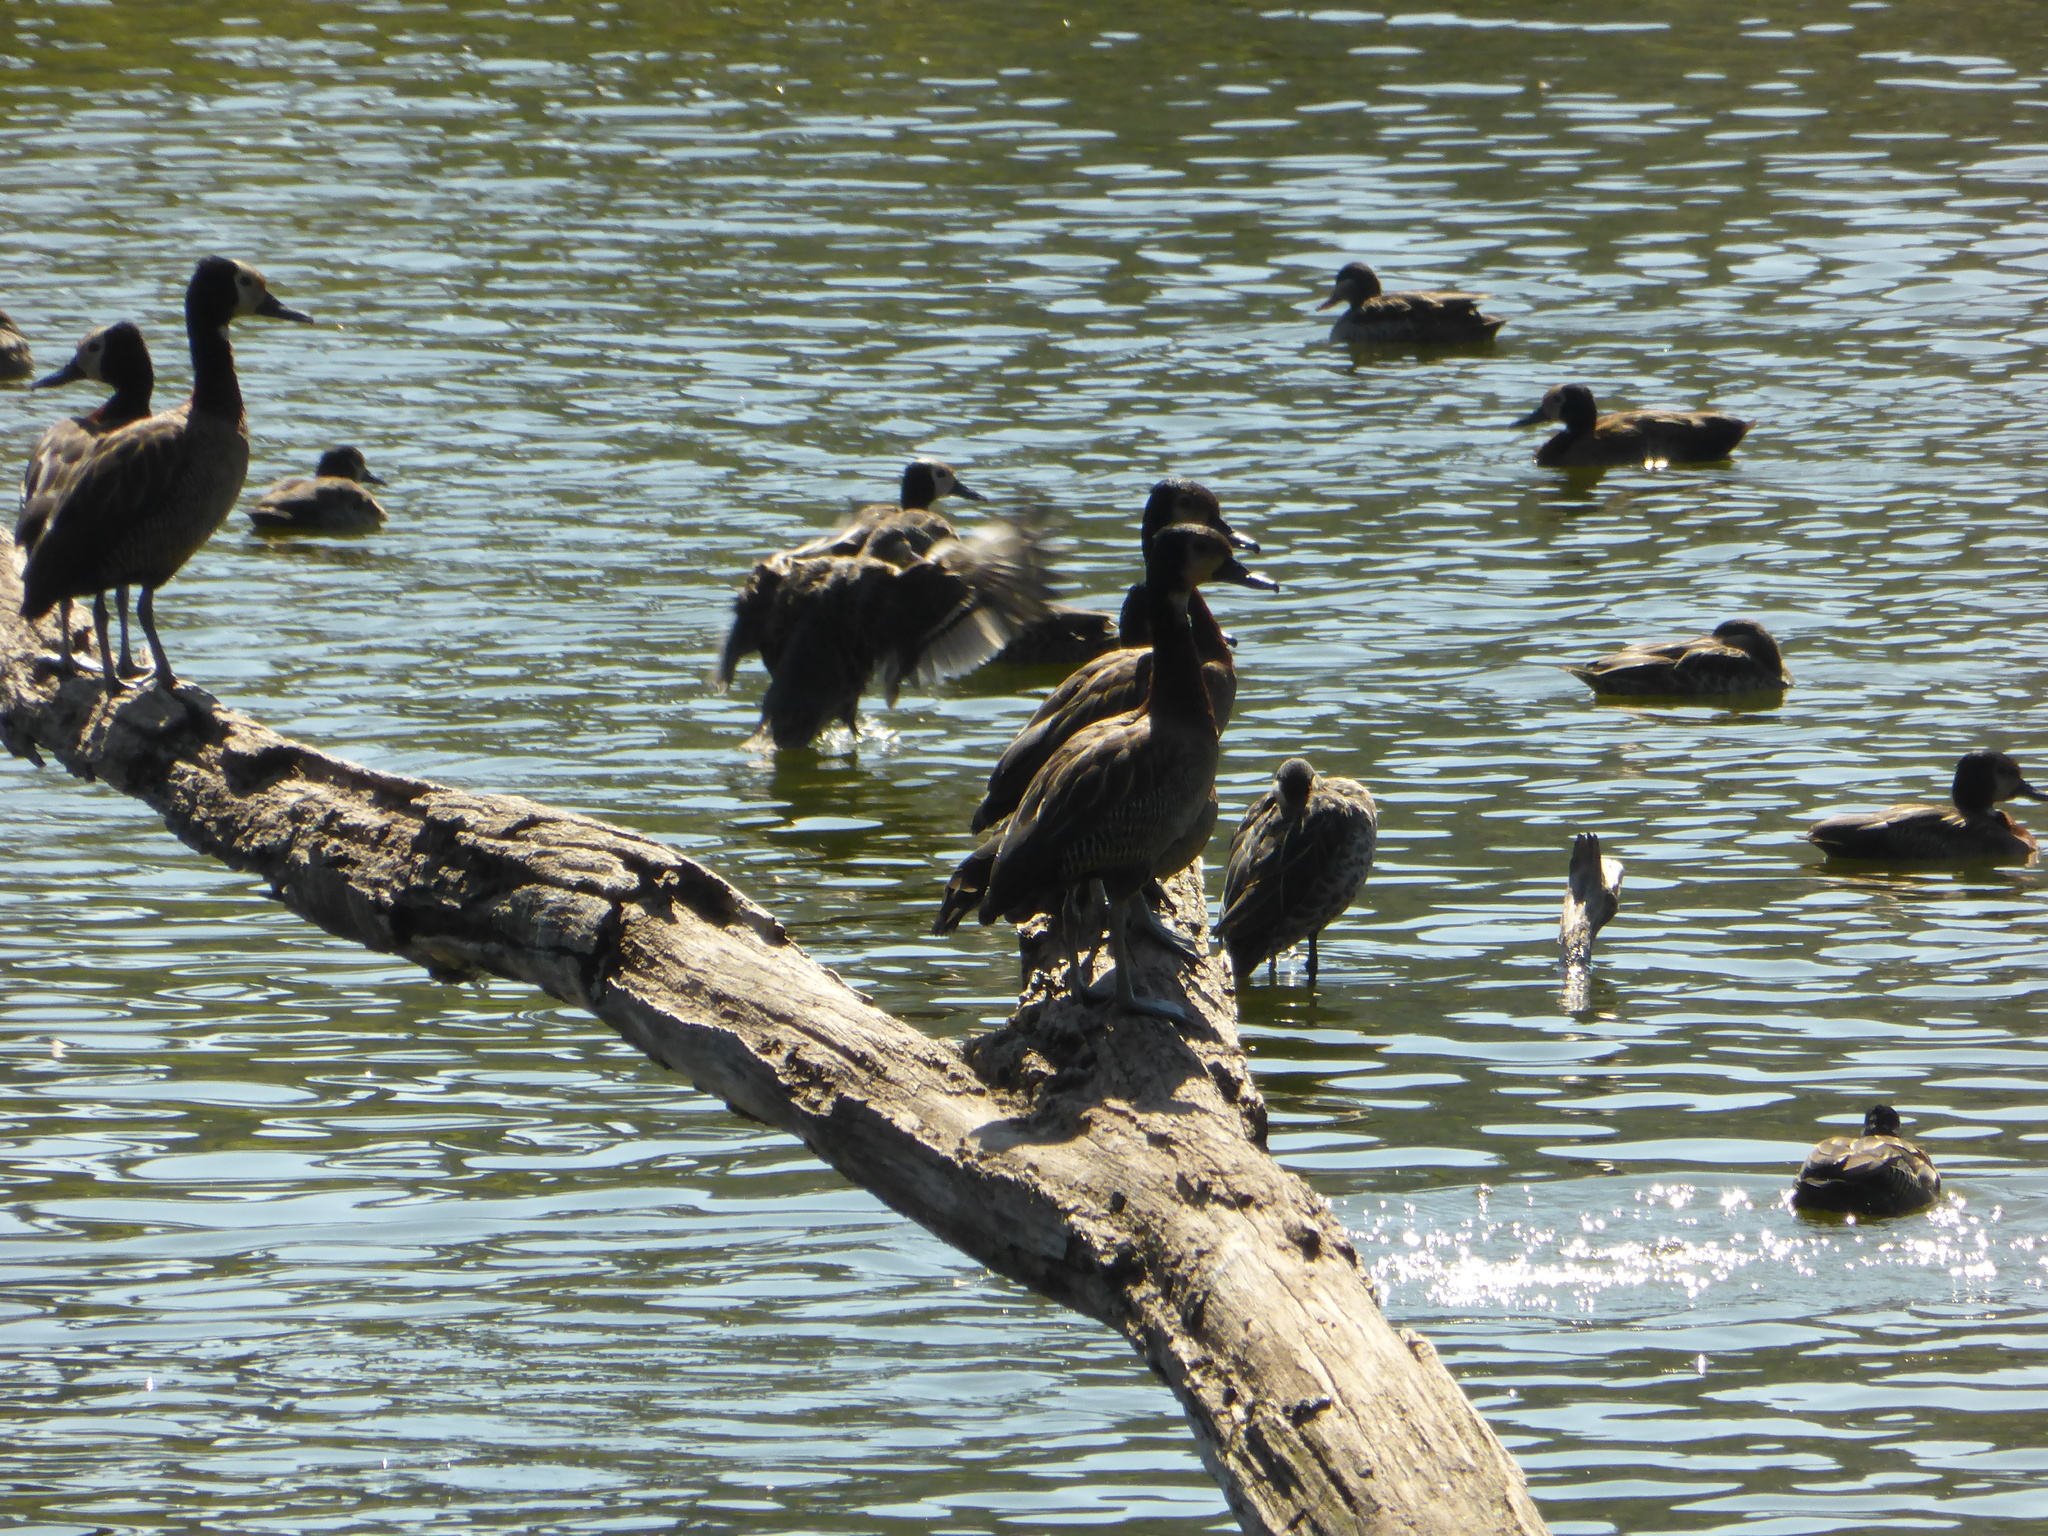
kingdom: Animalia
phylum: Chordata
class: Aves
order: Anseriformes
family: Anatidae
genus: Dendrocygna
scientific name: Dendrocygna viduata
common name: White-faced whistling duck
